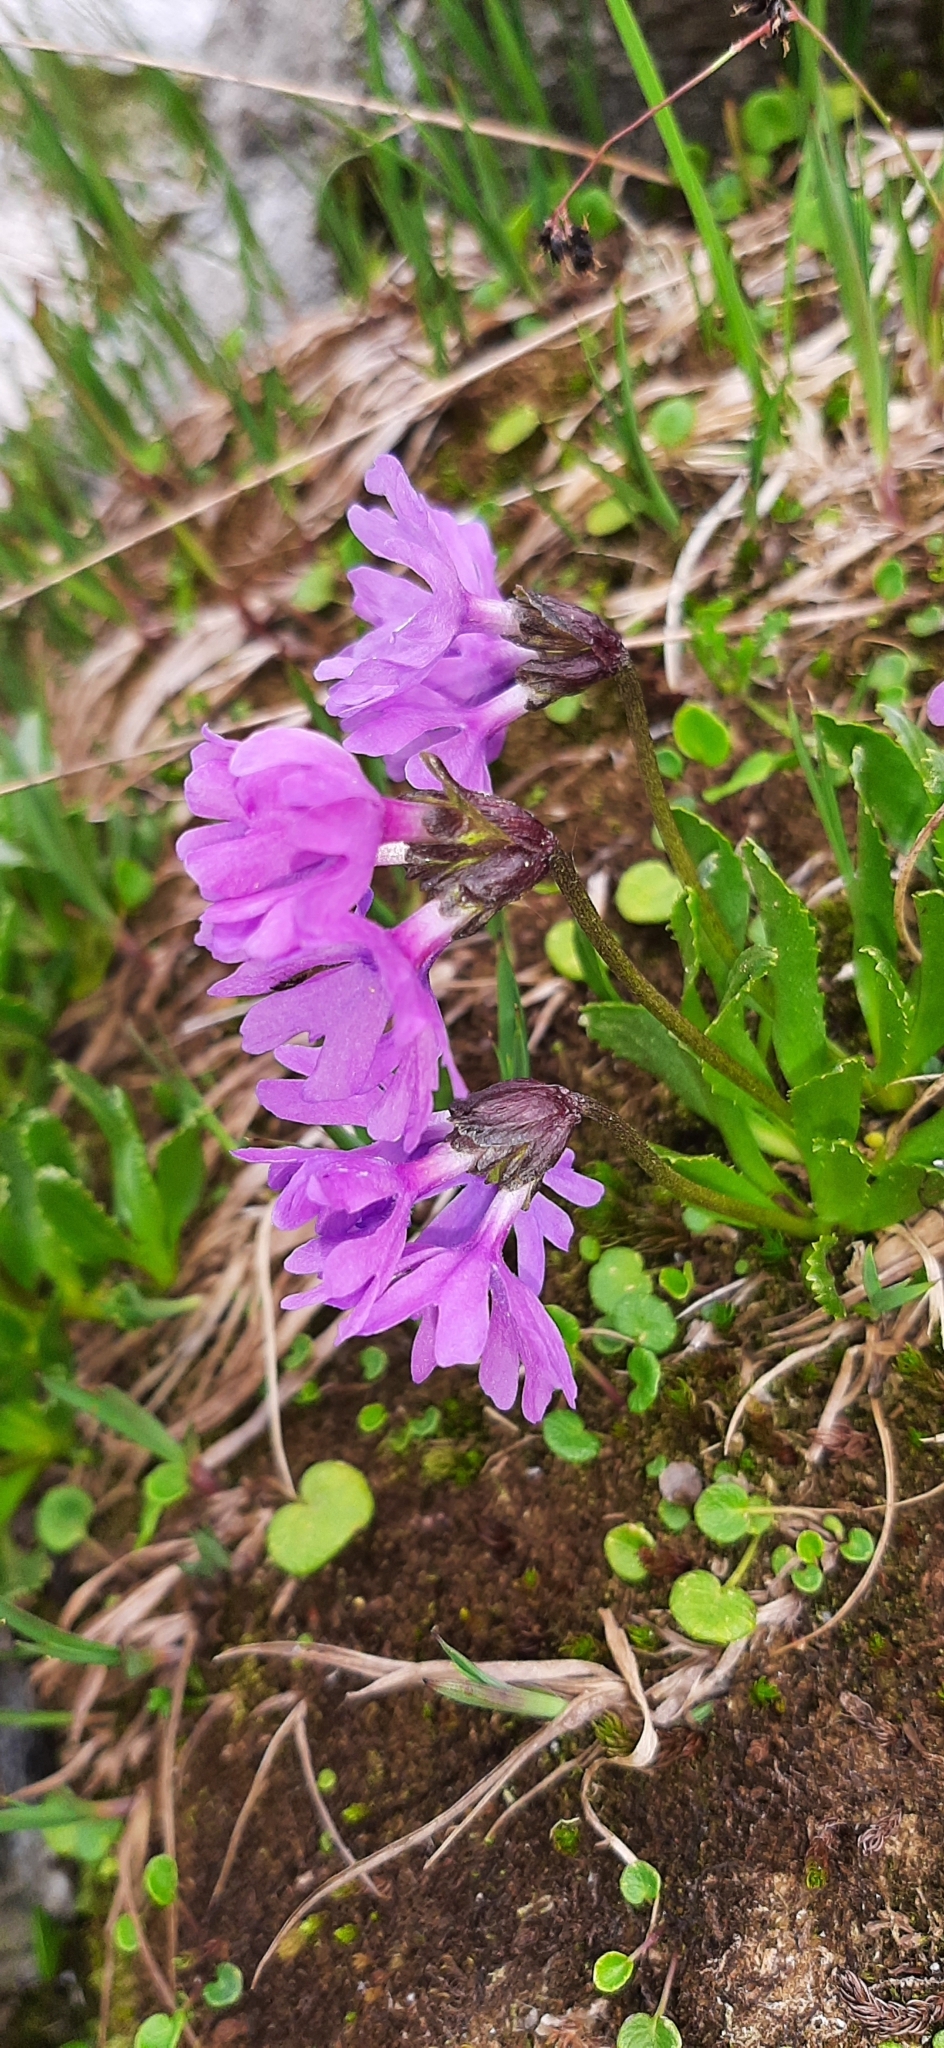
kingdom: Plantae
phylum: Tracheophyta
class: Magnoliopsida
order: Ericales
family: Primulaceae
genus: Primula
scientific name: Primula glutinosa
